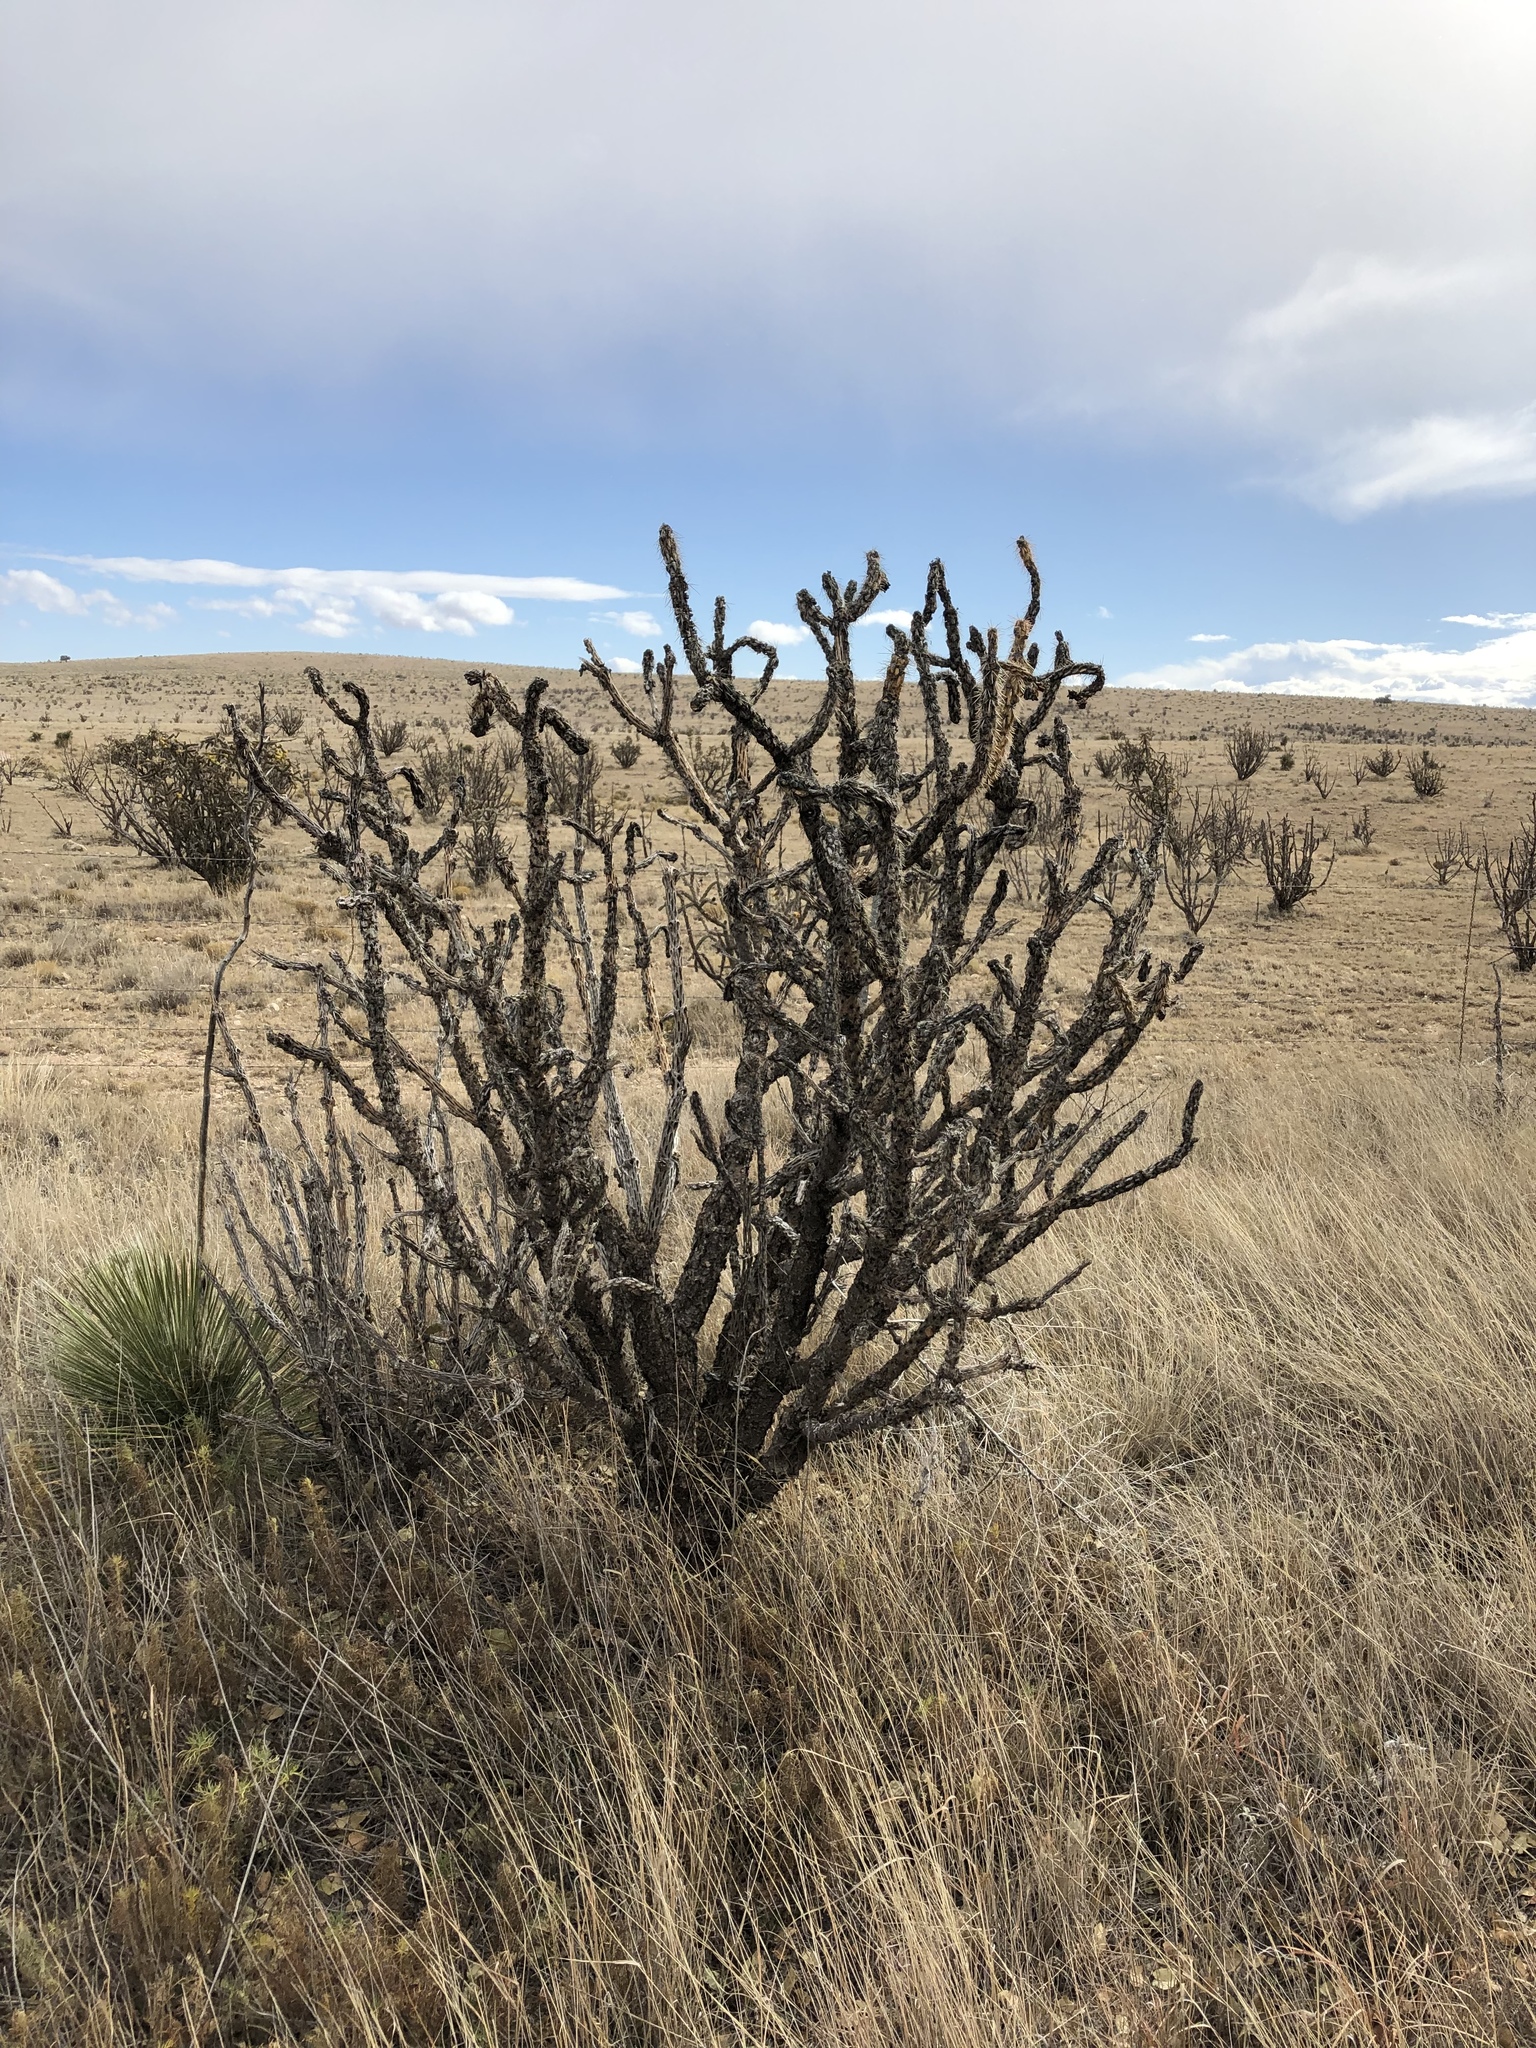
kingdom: Plantae
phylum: Tracheophyta
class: Magnoliopsida
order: Caryophyllales
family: Cactaceae
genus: Cylindropuntia
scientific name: Cylindropuntia imbricata
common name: Candelabrum cactus
